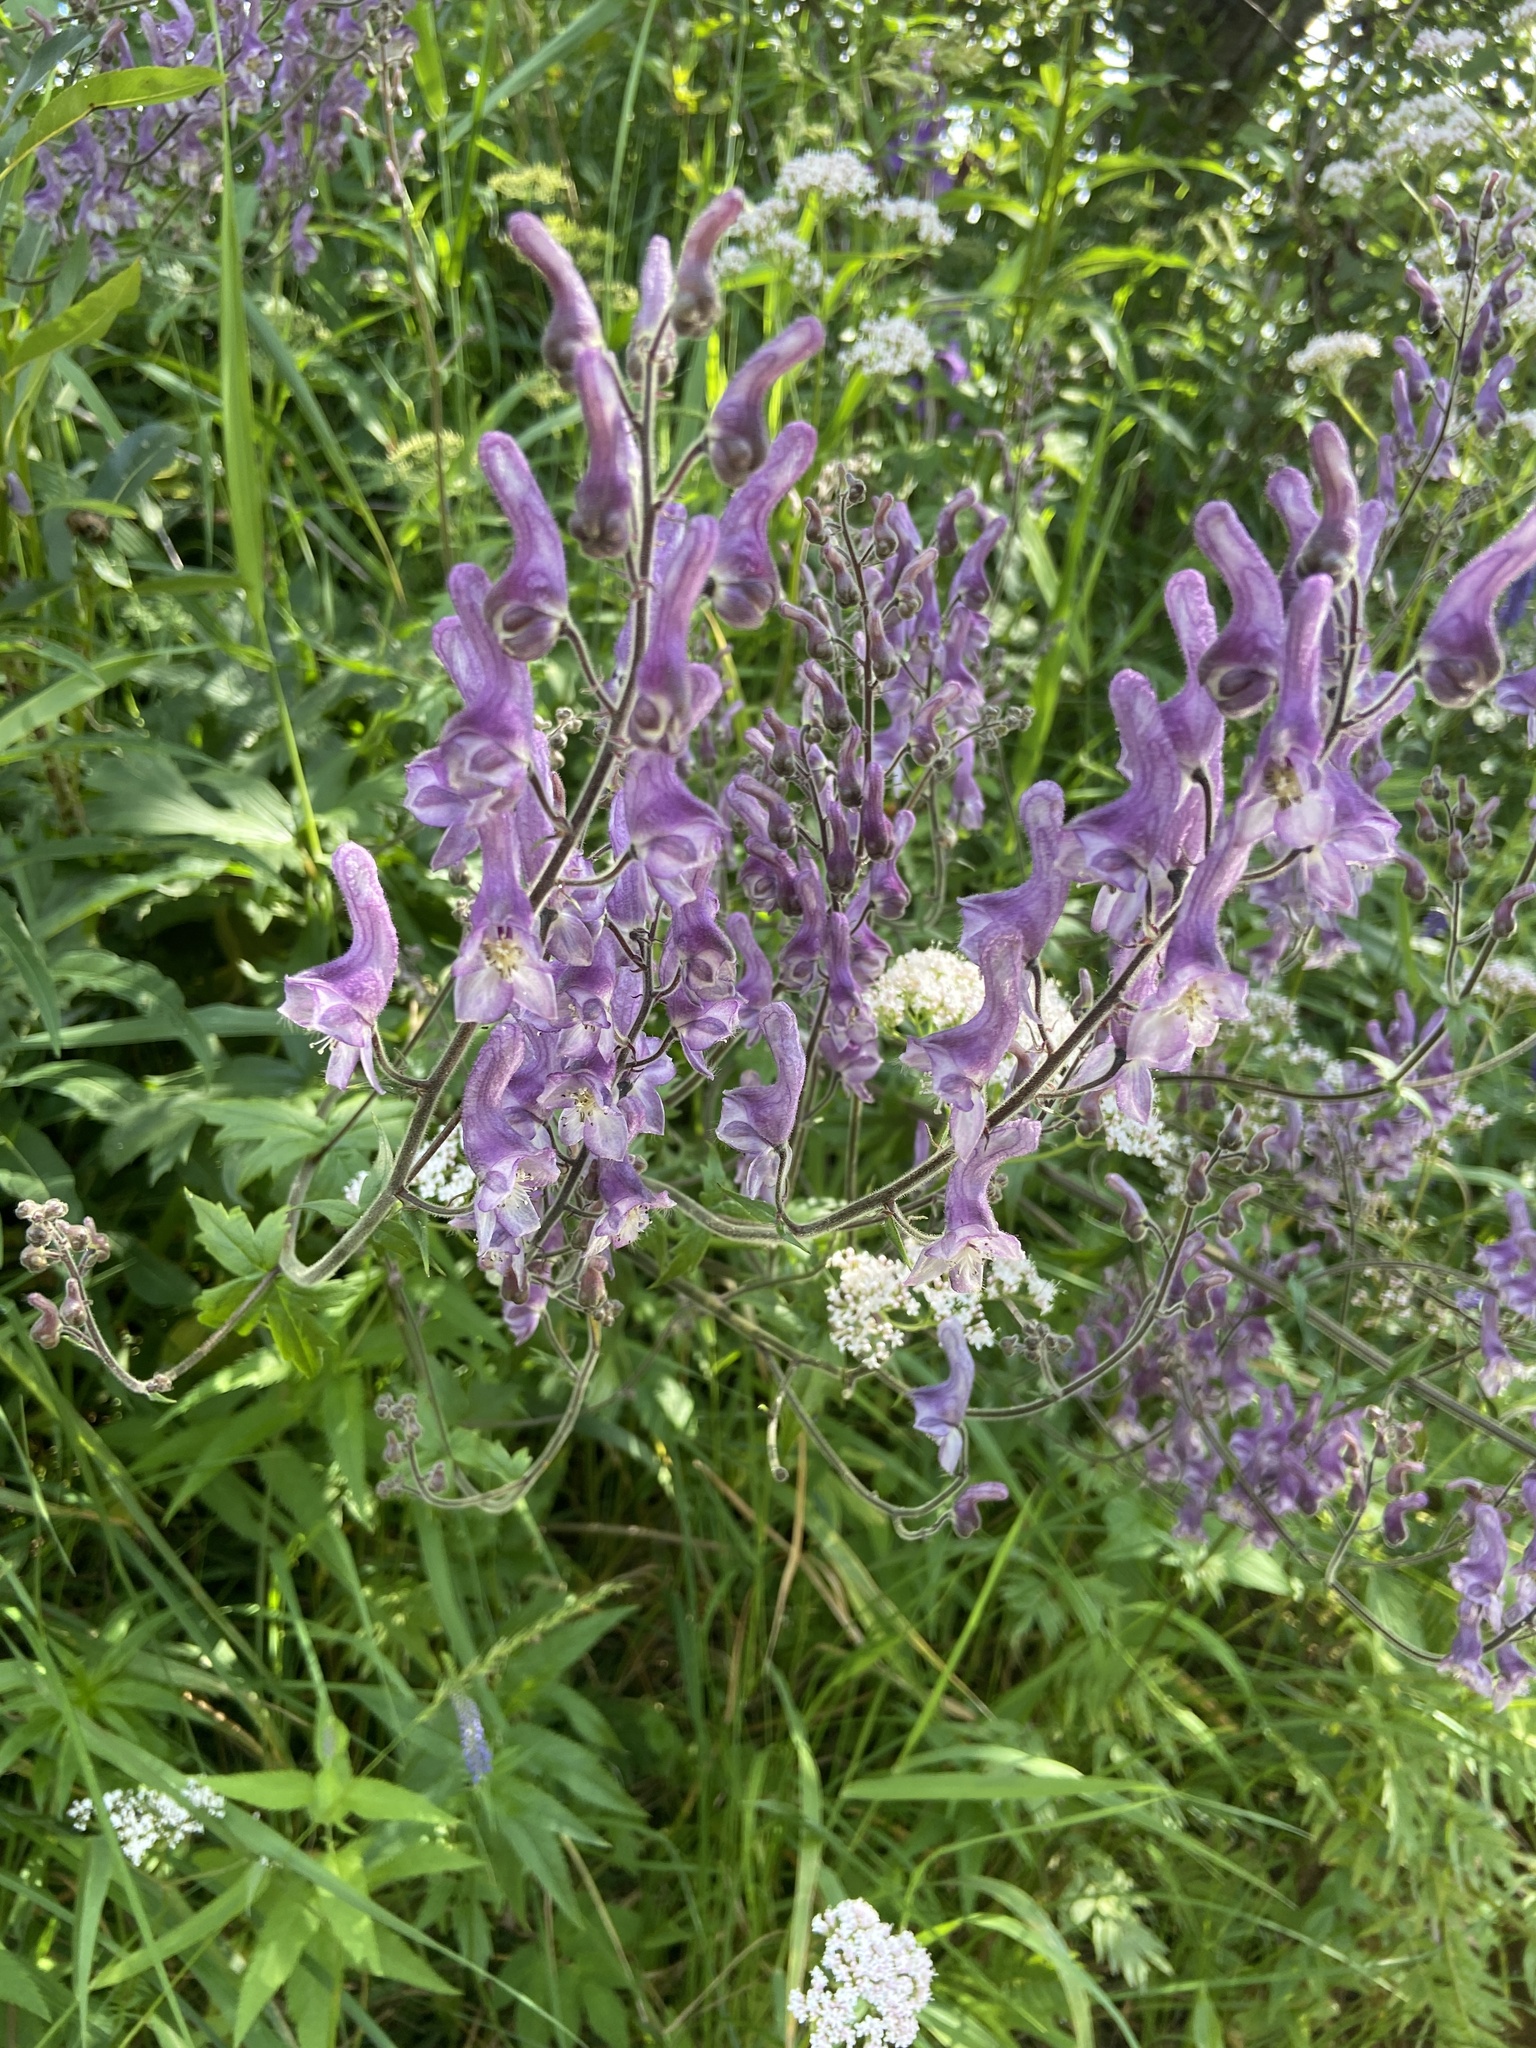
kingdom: Plantae
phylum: Tracheophyta
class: Magnoliopsida
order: Ranunculales
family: Ranunculaceae
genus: Aconitum
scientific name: Aconitum septentrionale
